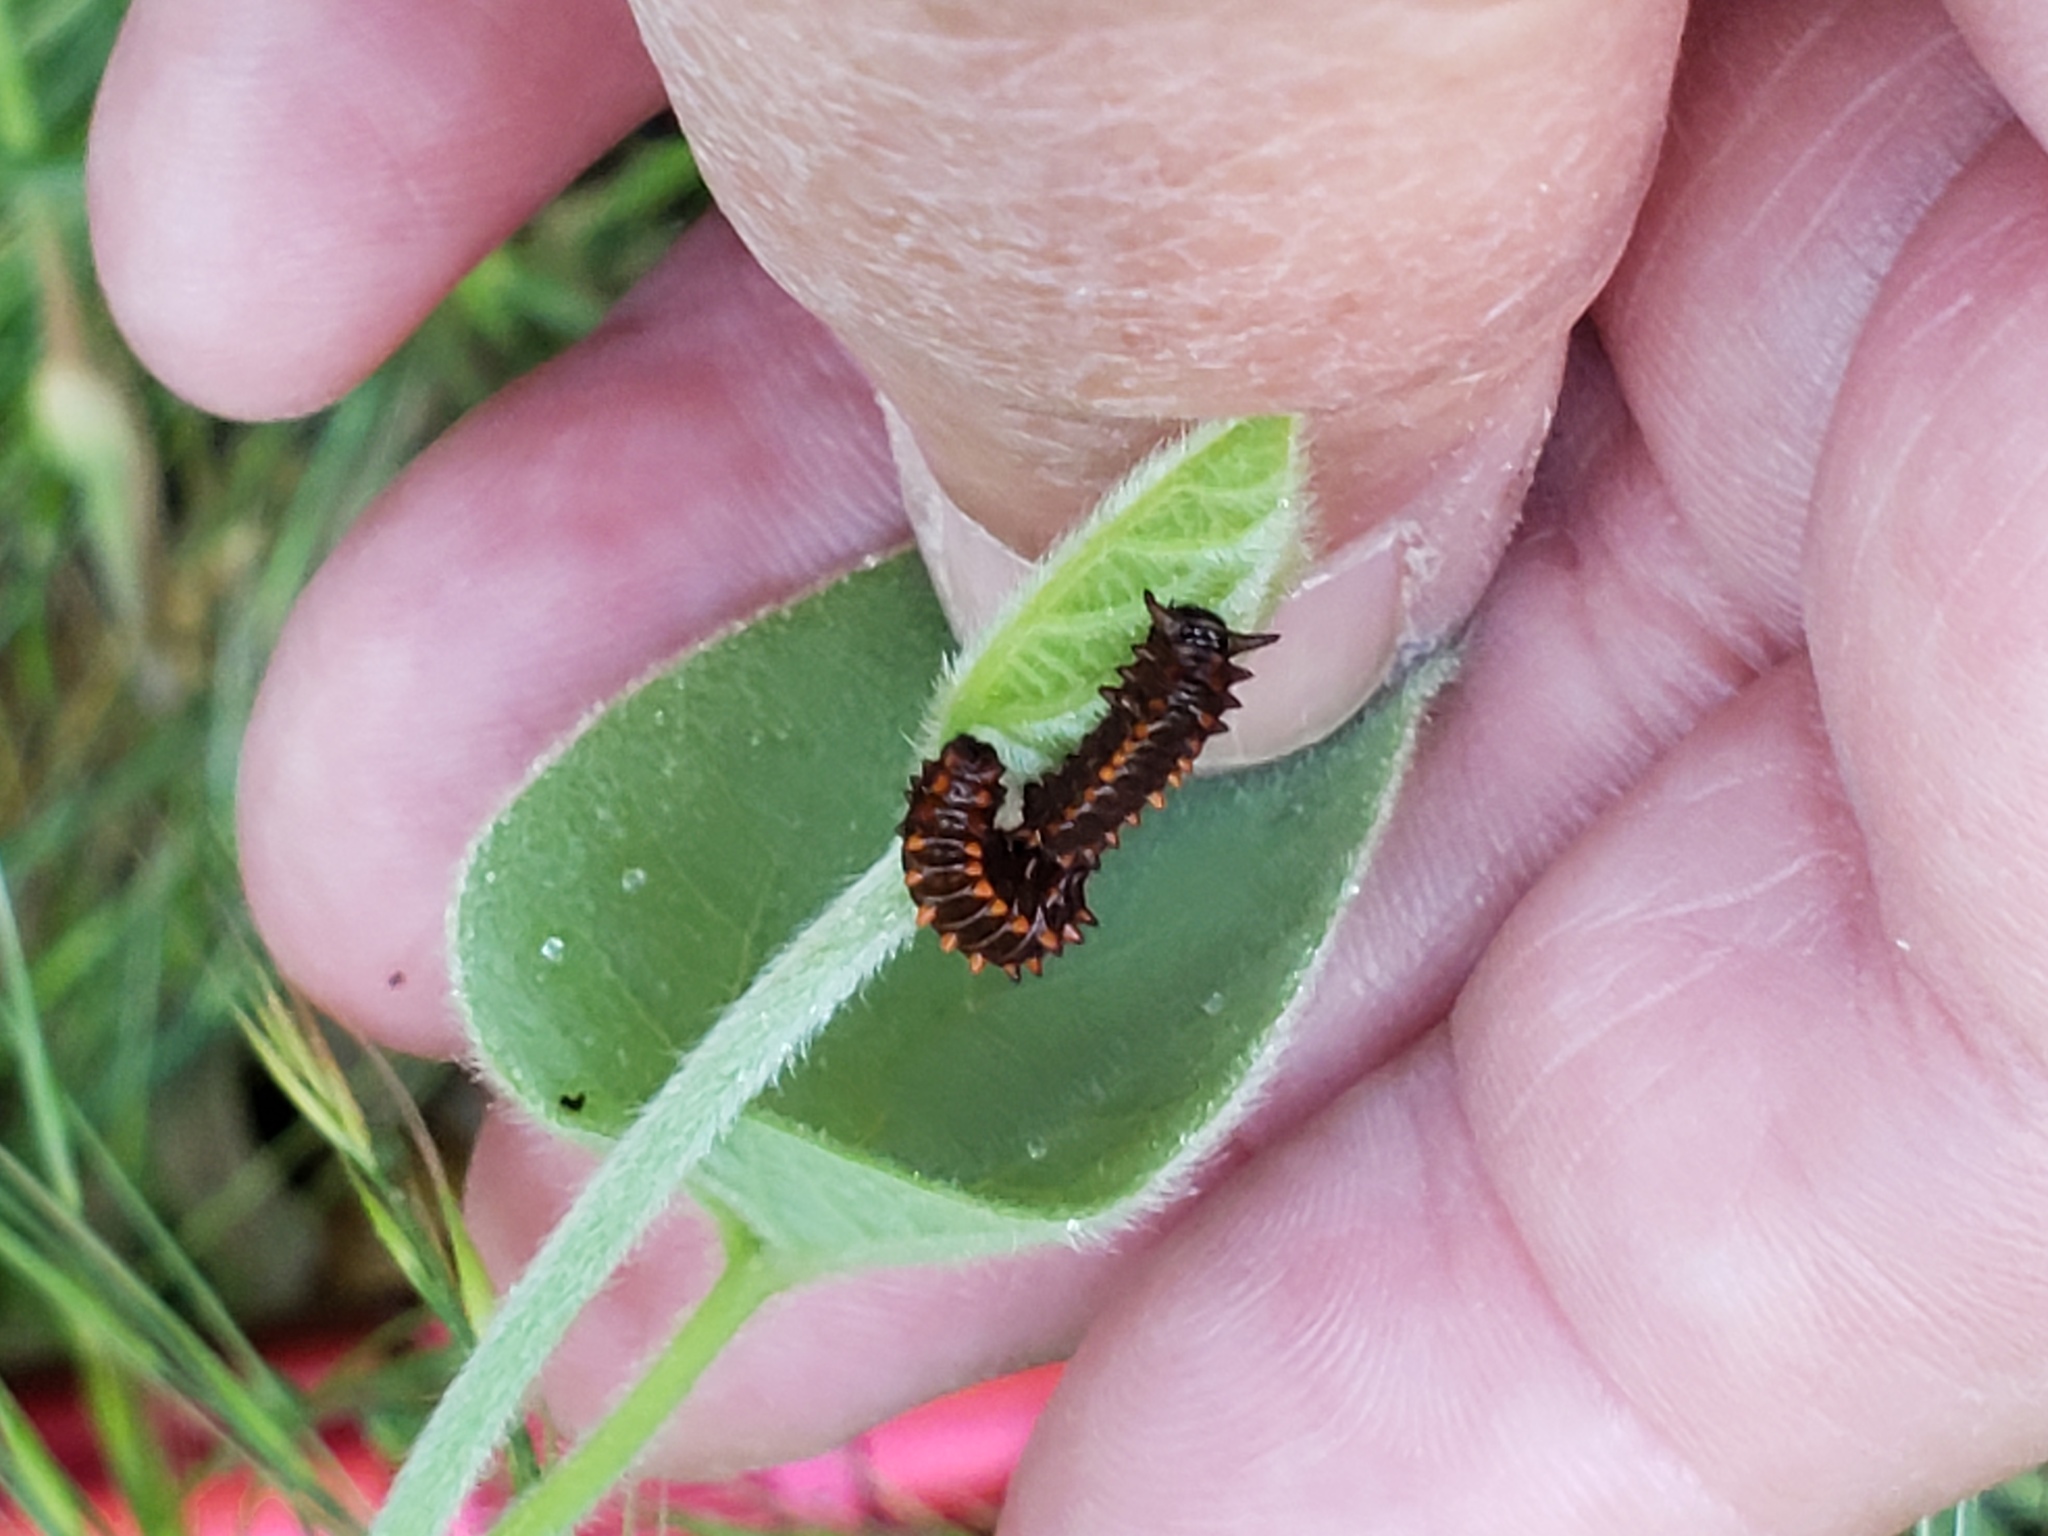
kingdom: Animalia
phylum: Arthropoda
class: Insecta
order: Lepidoptera
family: Papilionidae
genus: Battus
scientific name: Battus philenor
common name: Pipevine swallowtail
